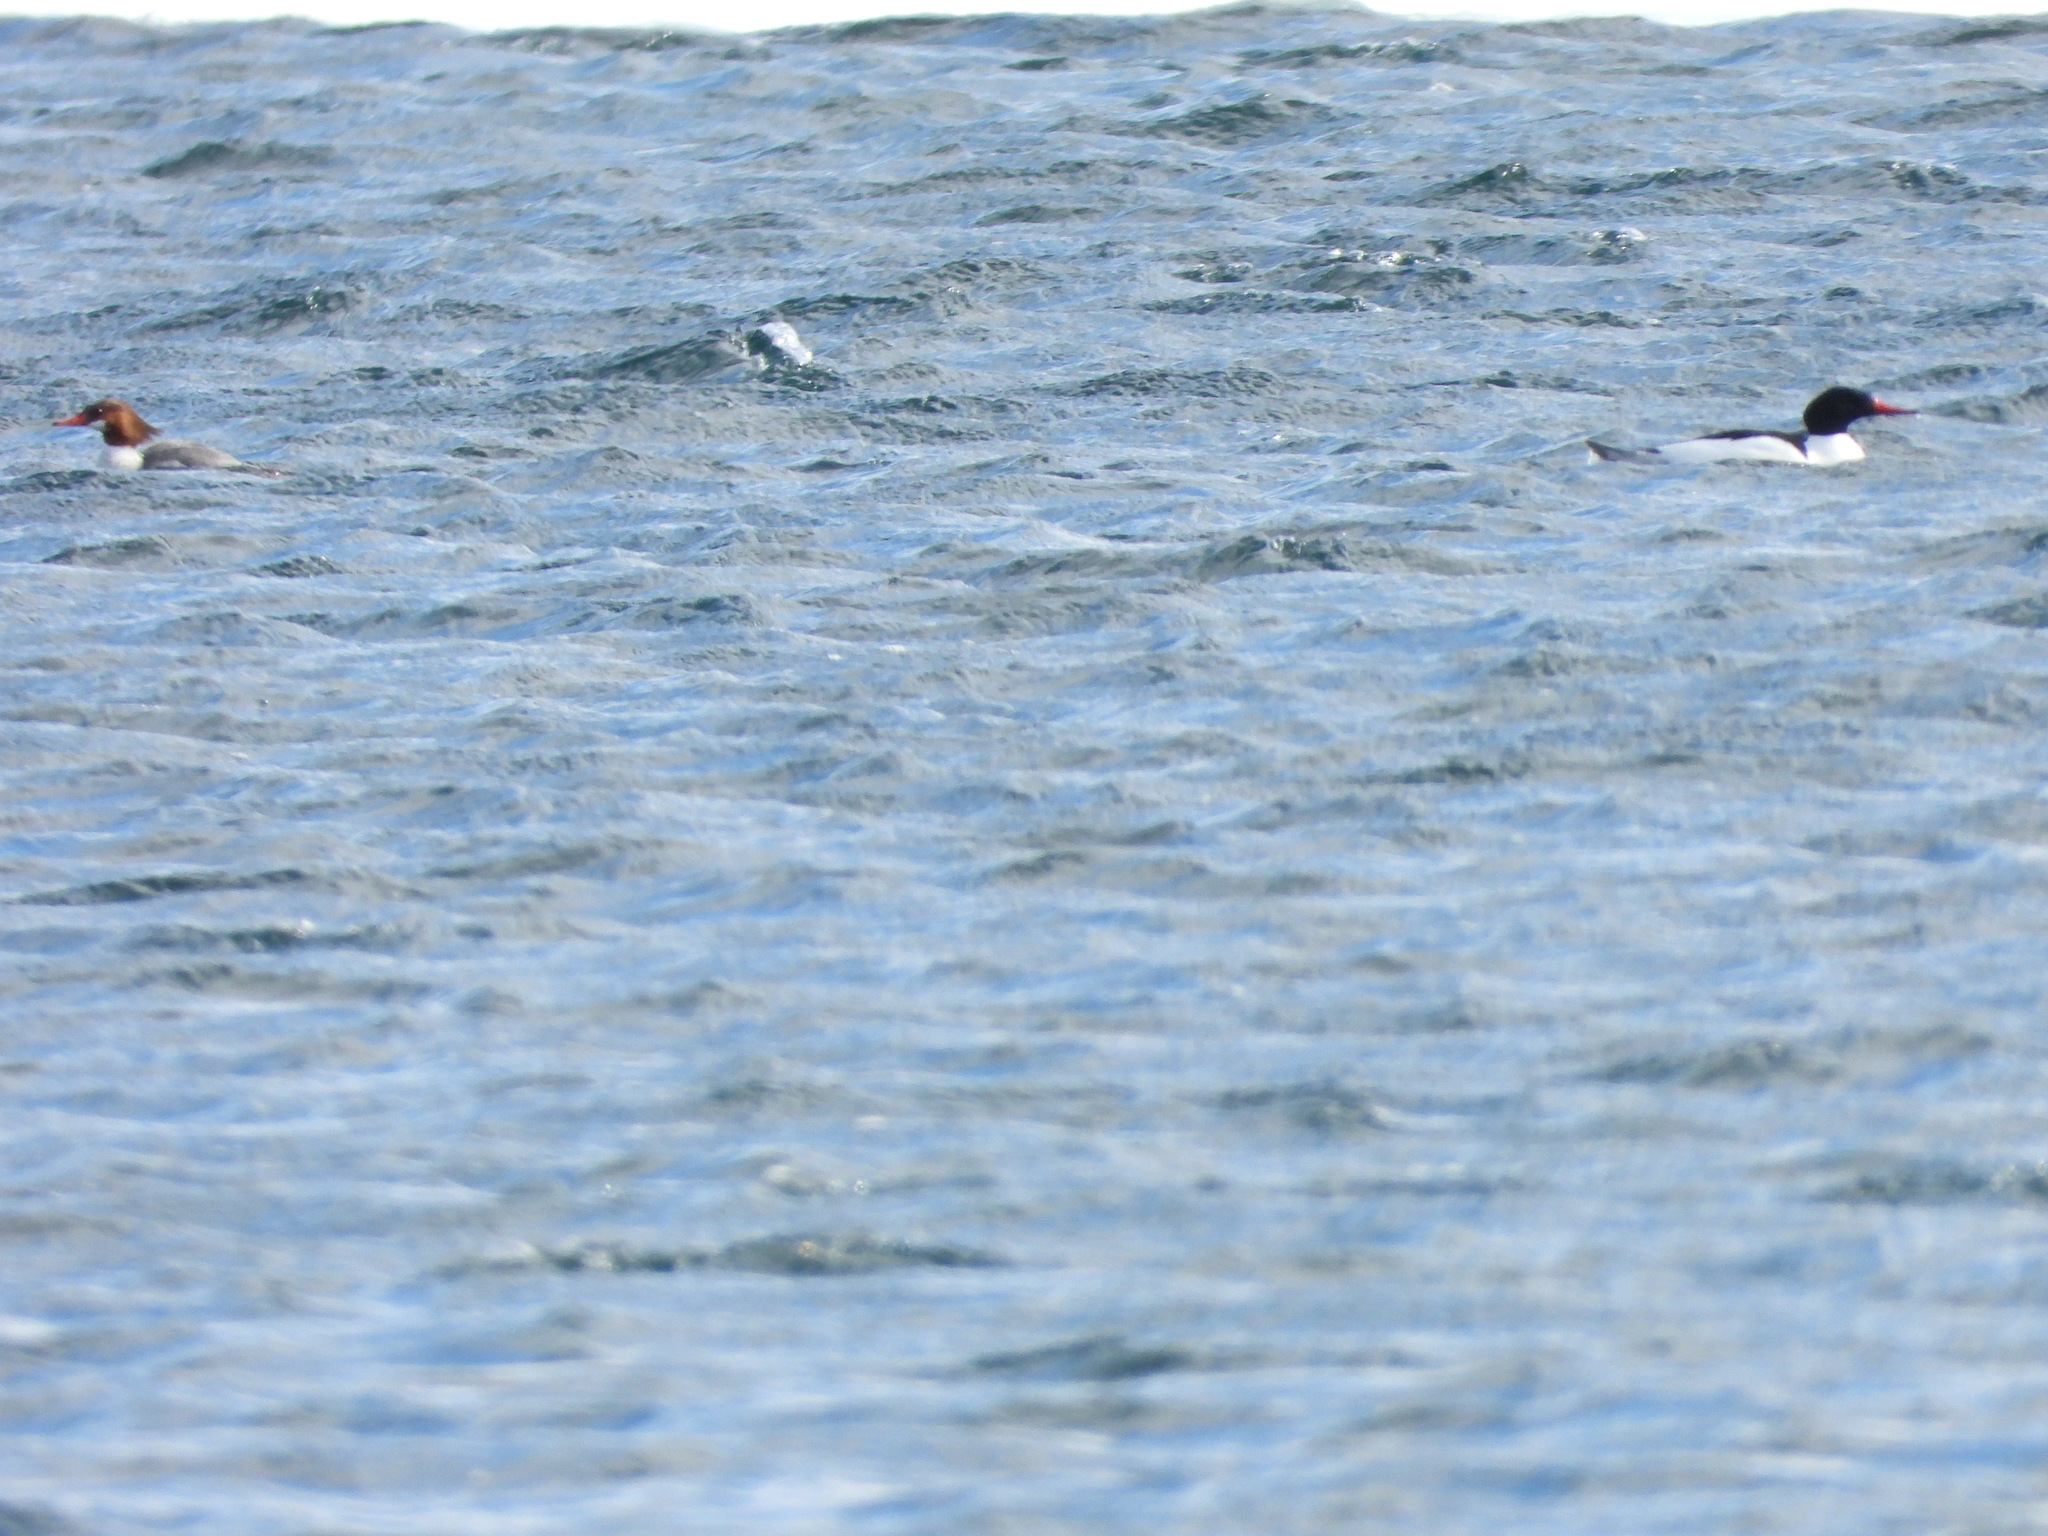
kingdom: Animalia
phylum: Chordata
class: Aves
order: Anseriformes
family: Anatidae
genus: Mergus
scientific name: Mergus merganser
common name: Common merganser
